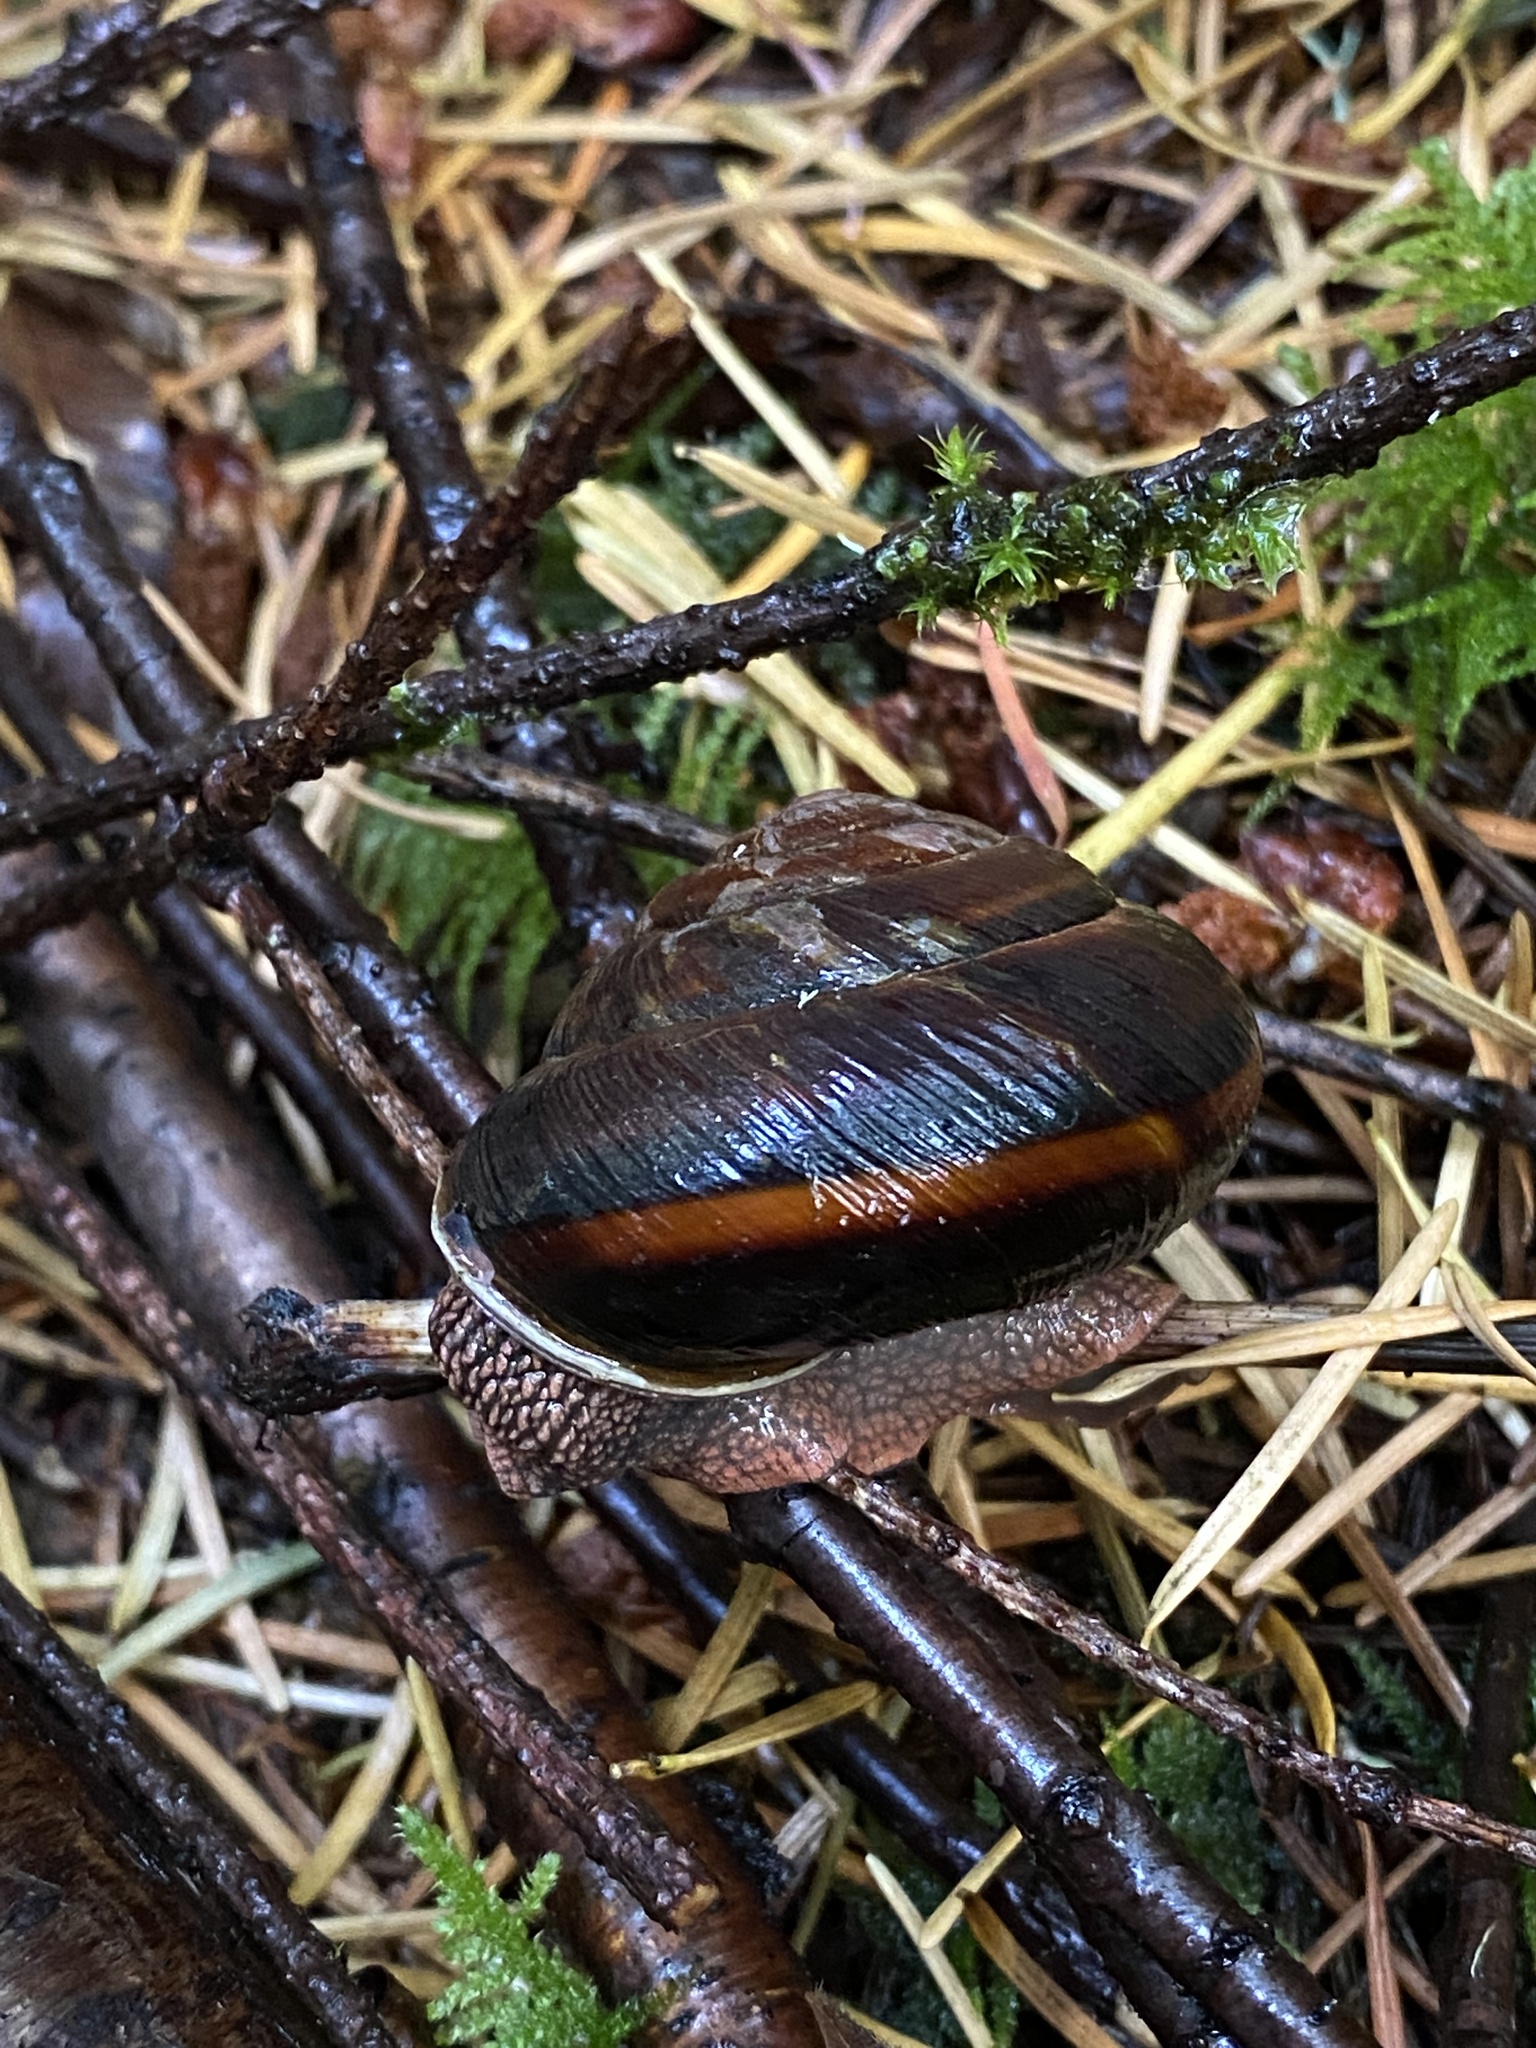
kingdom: Animalia
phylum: Mollusca
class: Gastropoda
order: Stylommatophora
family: Xanthonychidae
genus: Monadenia
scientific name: Monadenia fidelis
